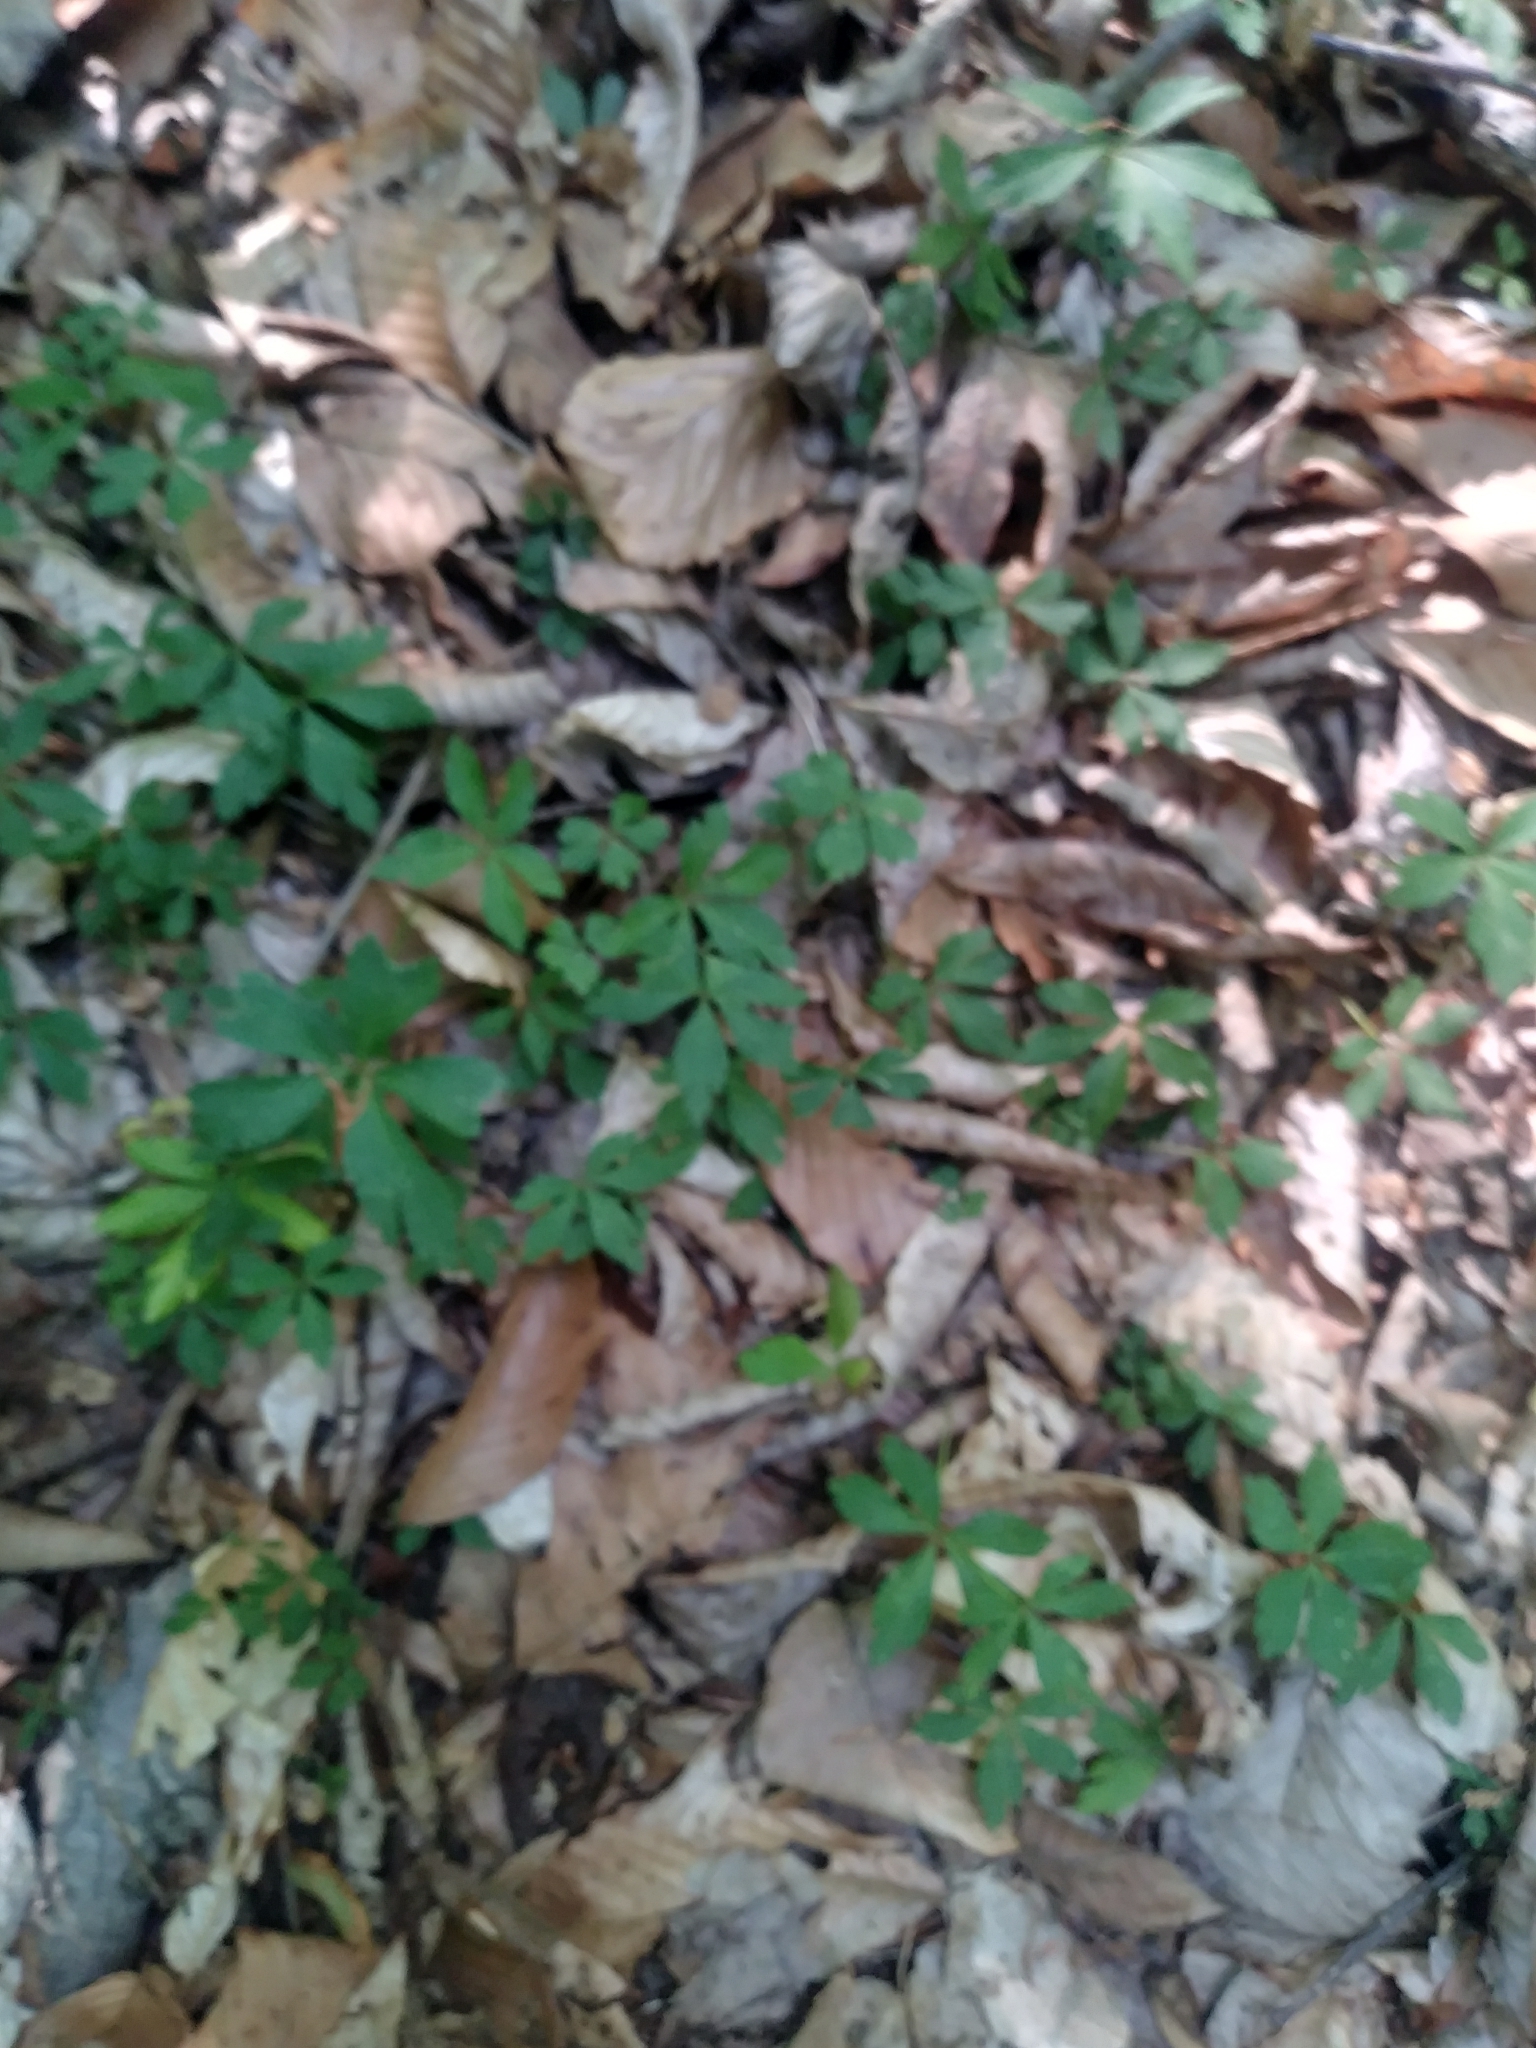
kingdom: Plantae
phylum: Tracheophyta
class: Magnoliopsida
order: Ranunculales
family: Ranunculaceae
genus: Anemone
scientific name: Anemone quinquefolia
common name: Wood anemone
